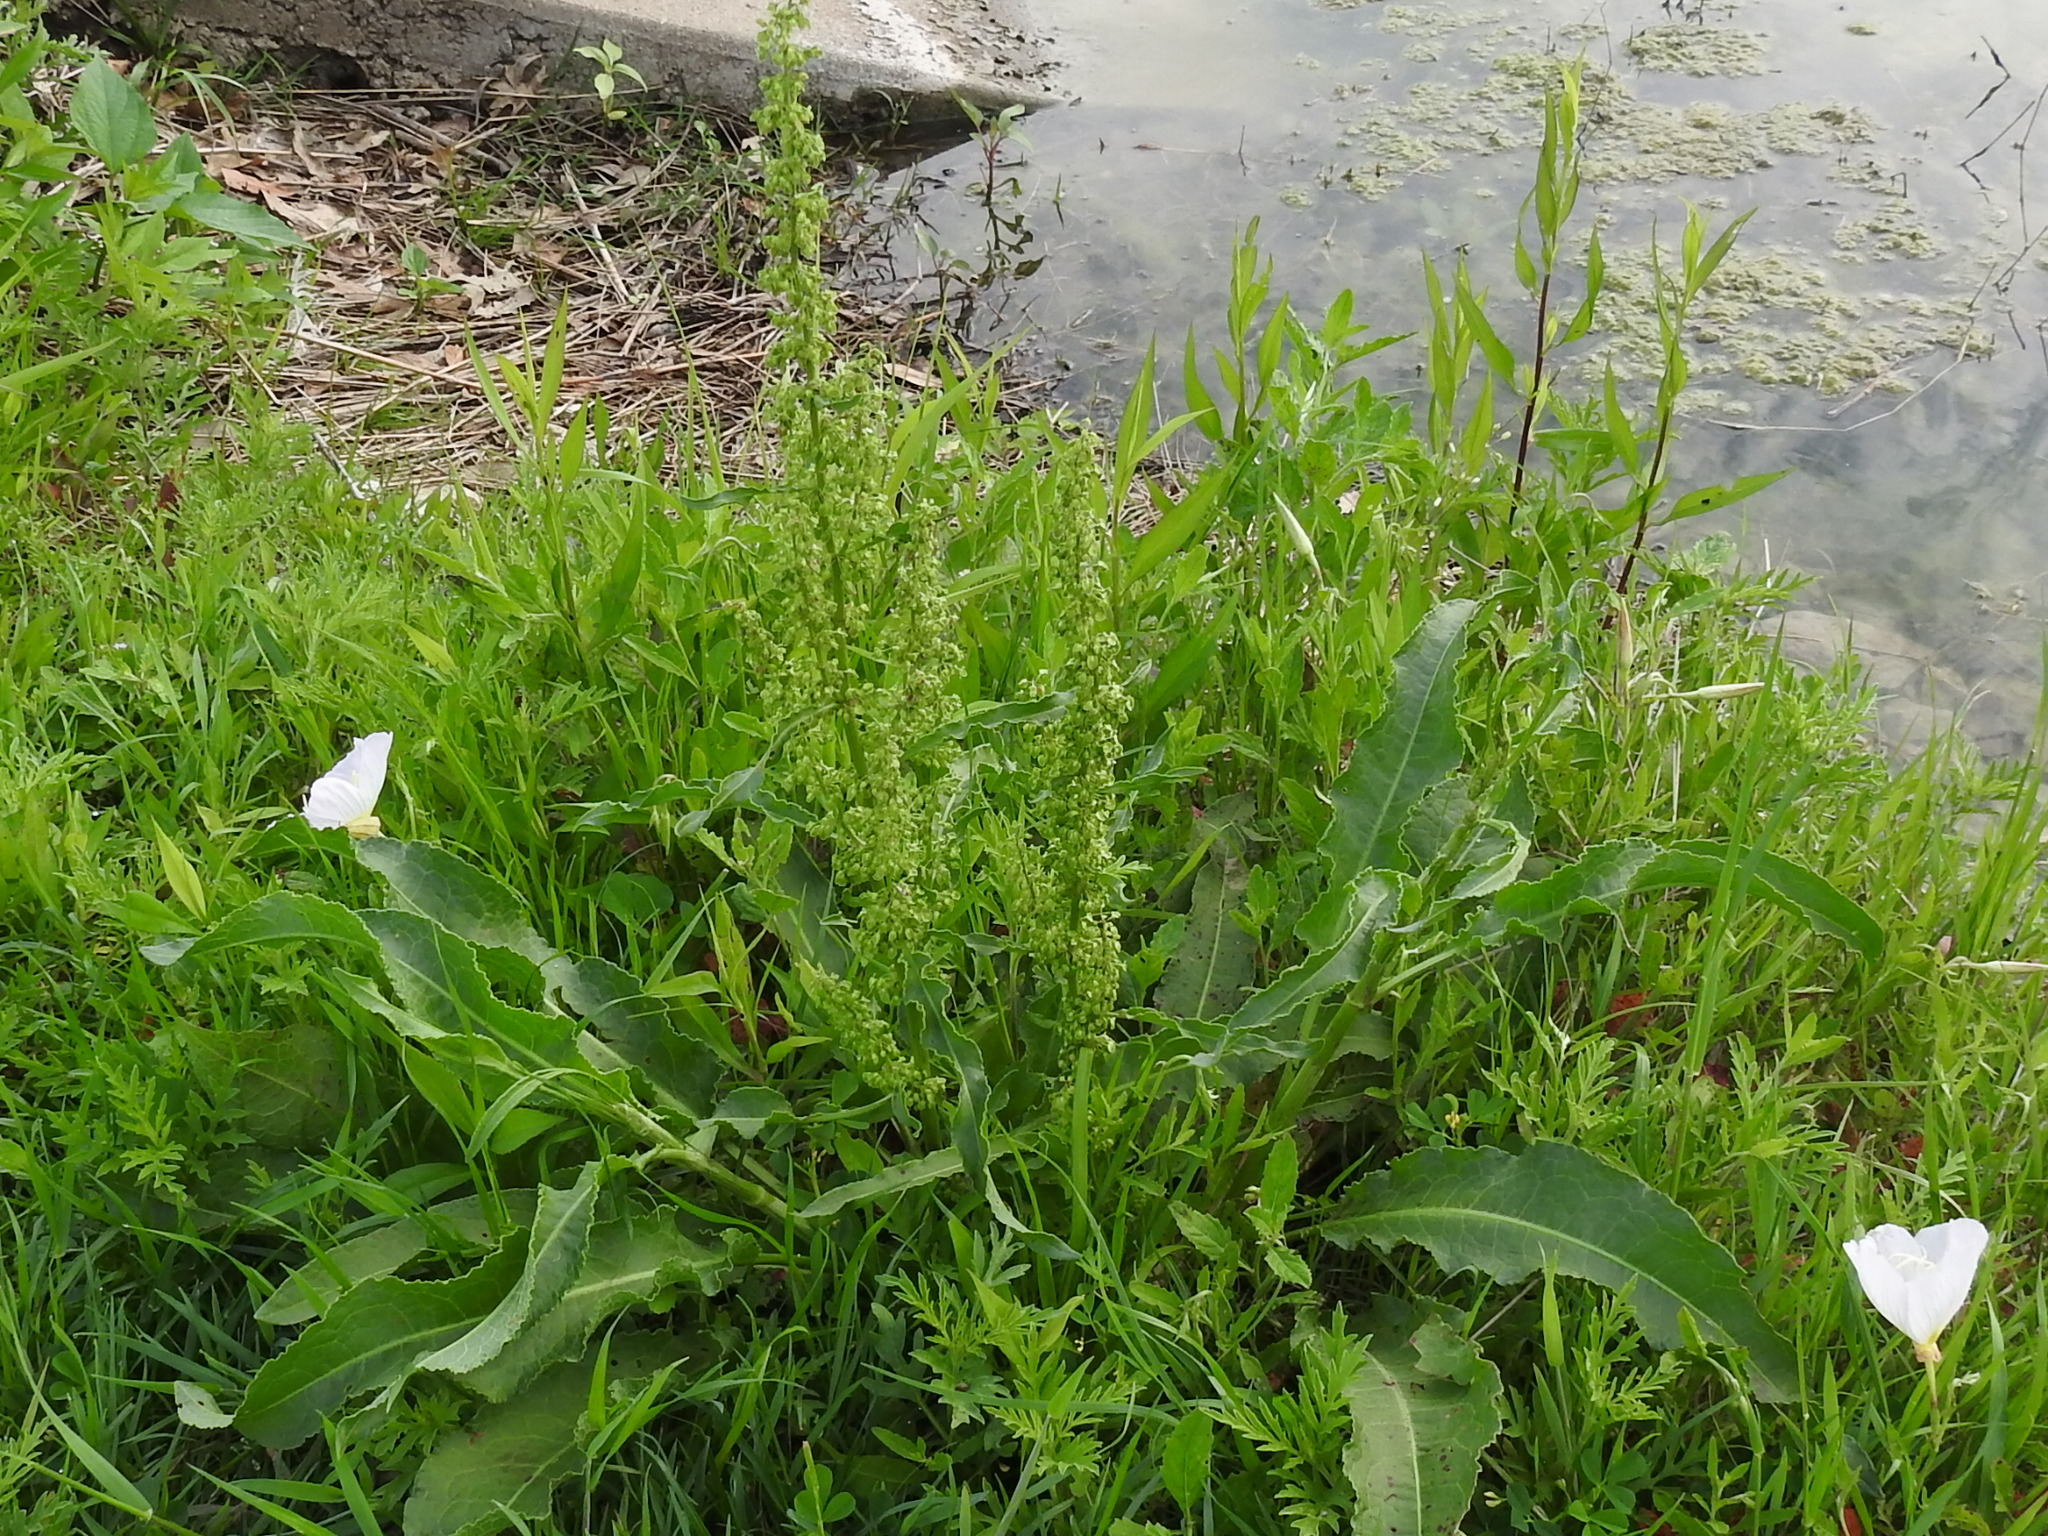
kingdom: Plantae
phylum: Tracheophyta
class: Magnoliopsida
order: Caryophyllales
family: Polygonaceae
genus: Rumex
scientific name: Rumex crispus
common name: Curled dock
